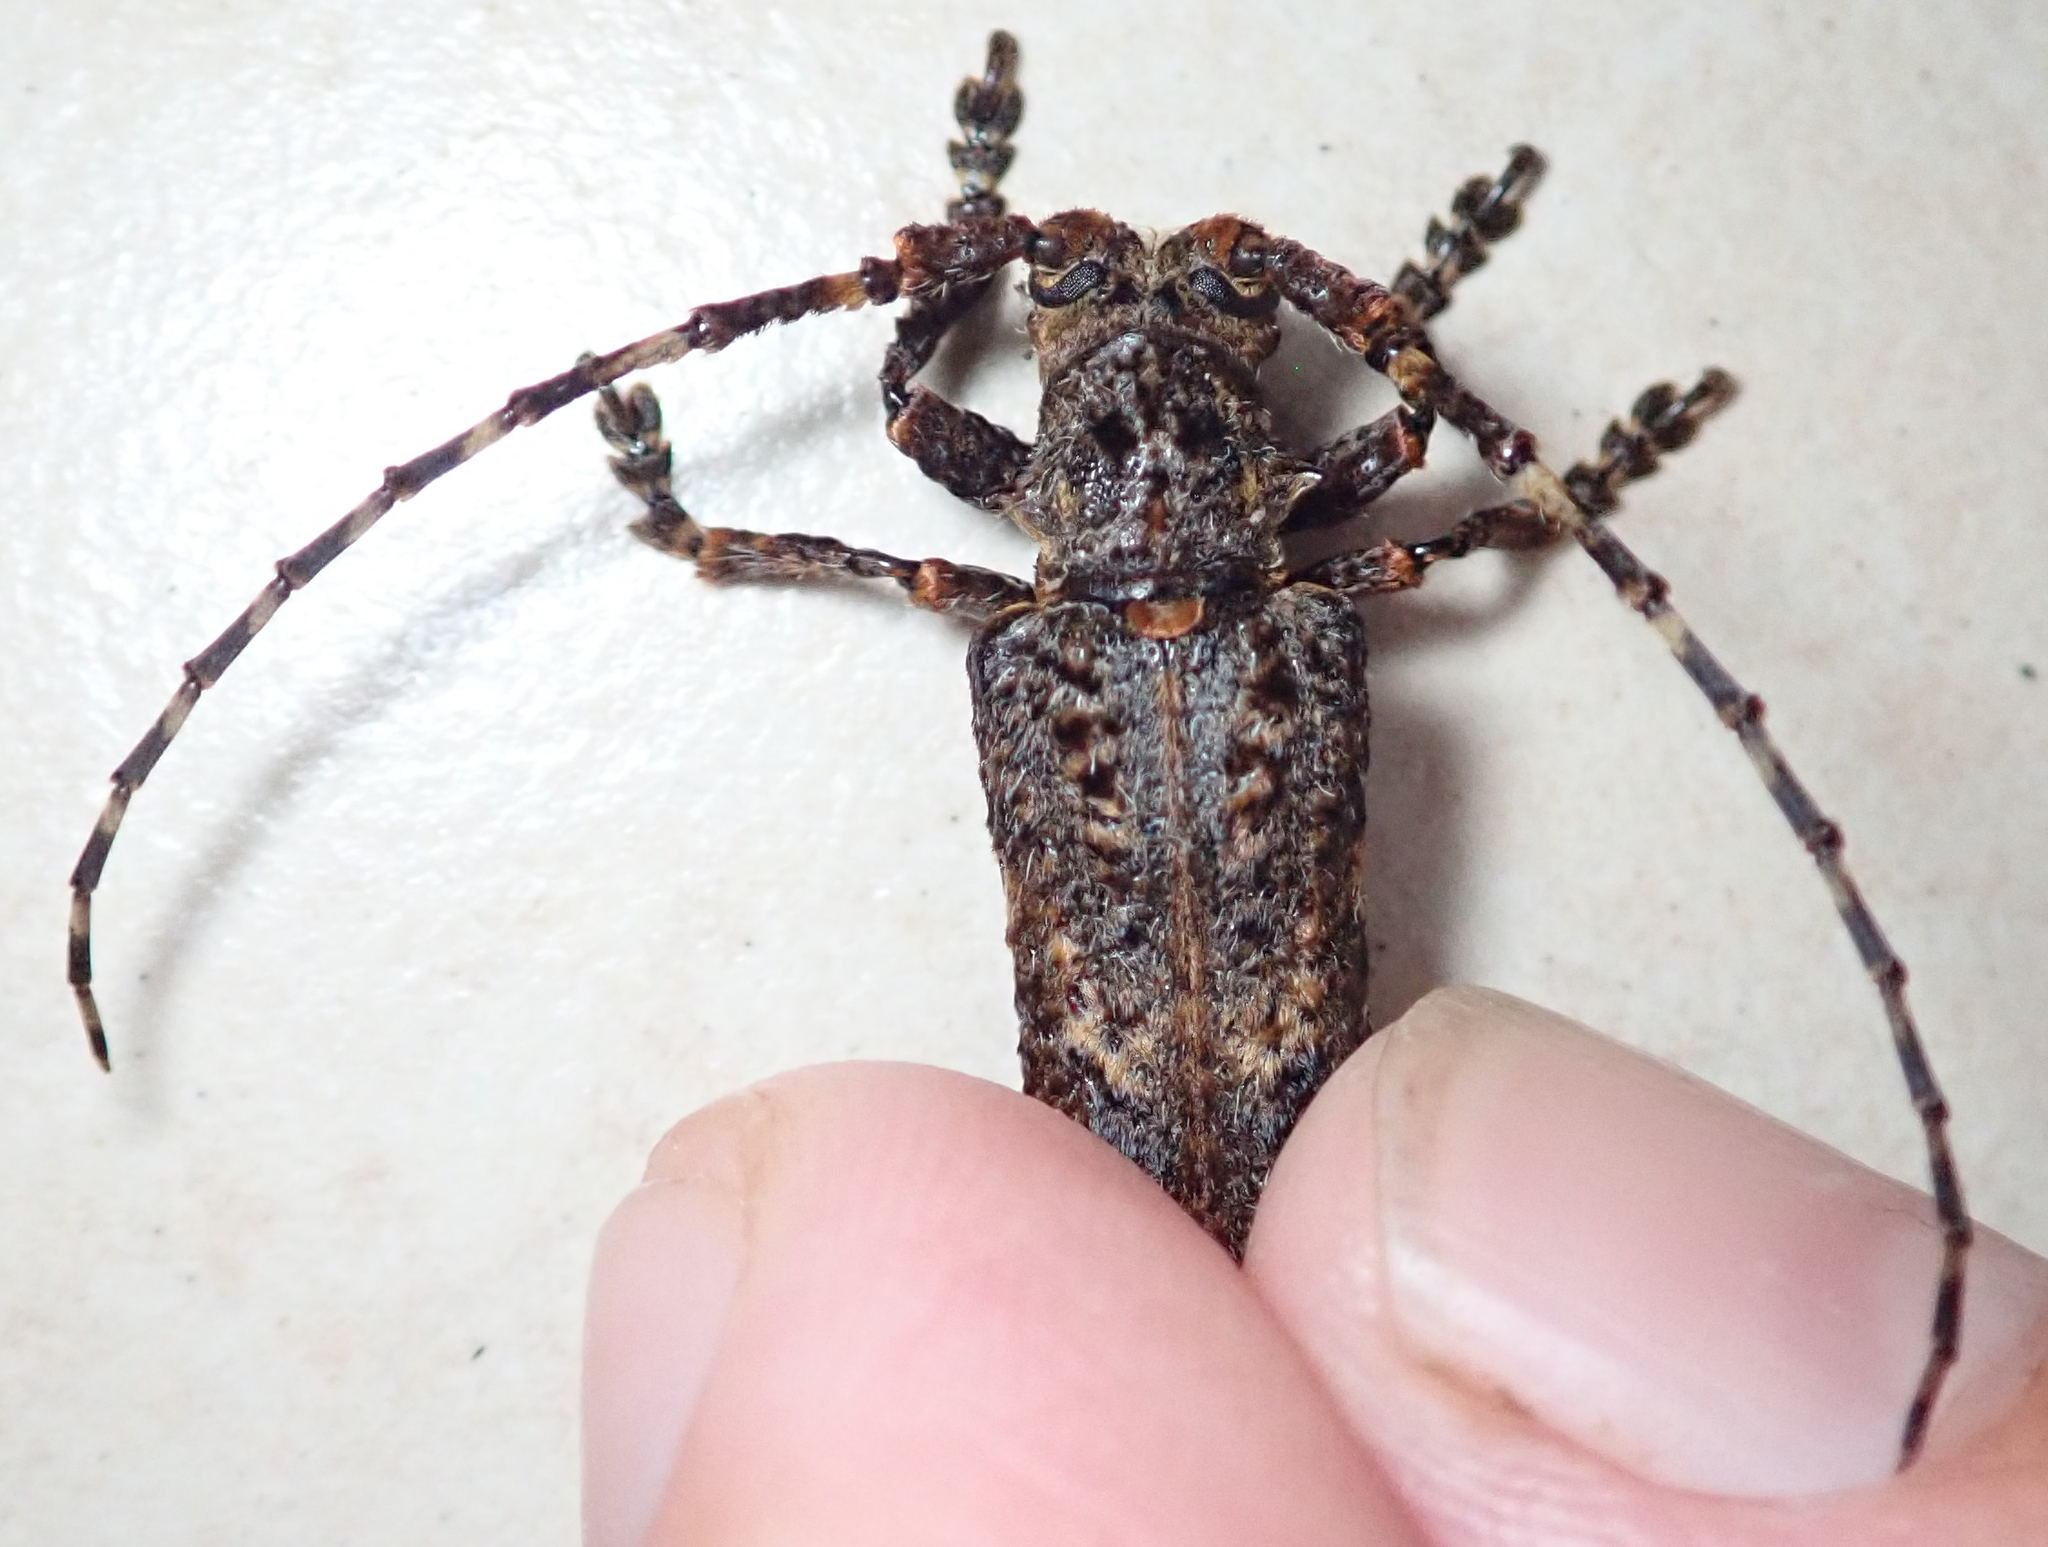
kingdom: Animalia
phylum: Arthropoda
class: Insecta
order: Coleoptera
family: Cerambycidae
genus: Cymatura
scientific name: Cymatura spumans
